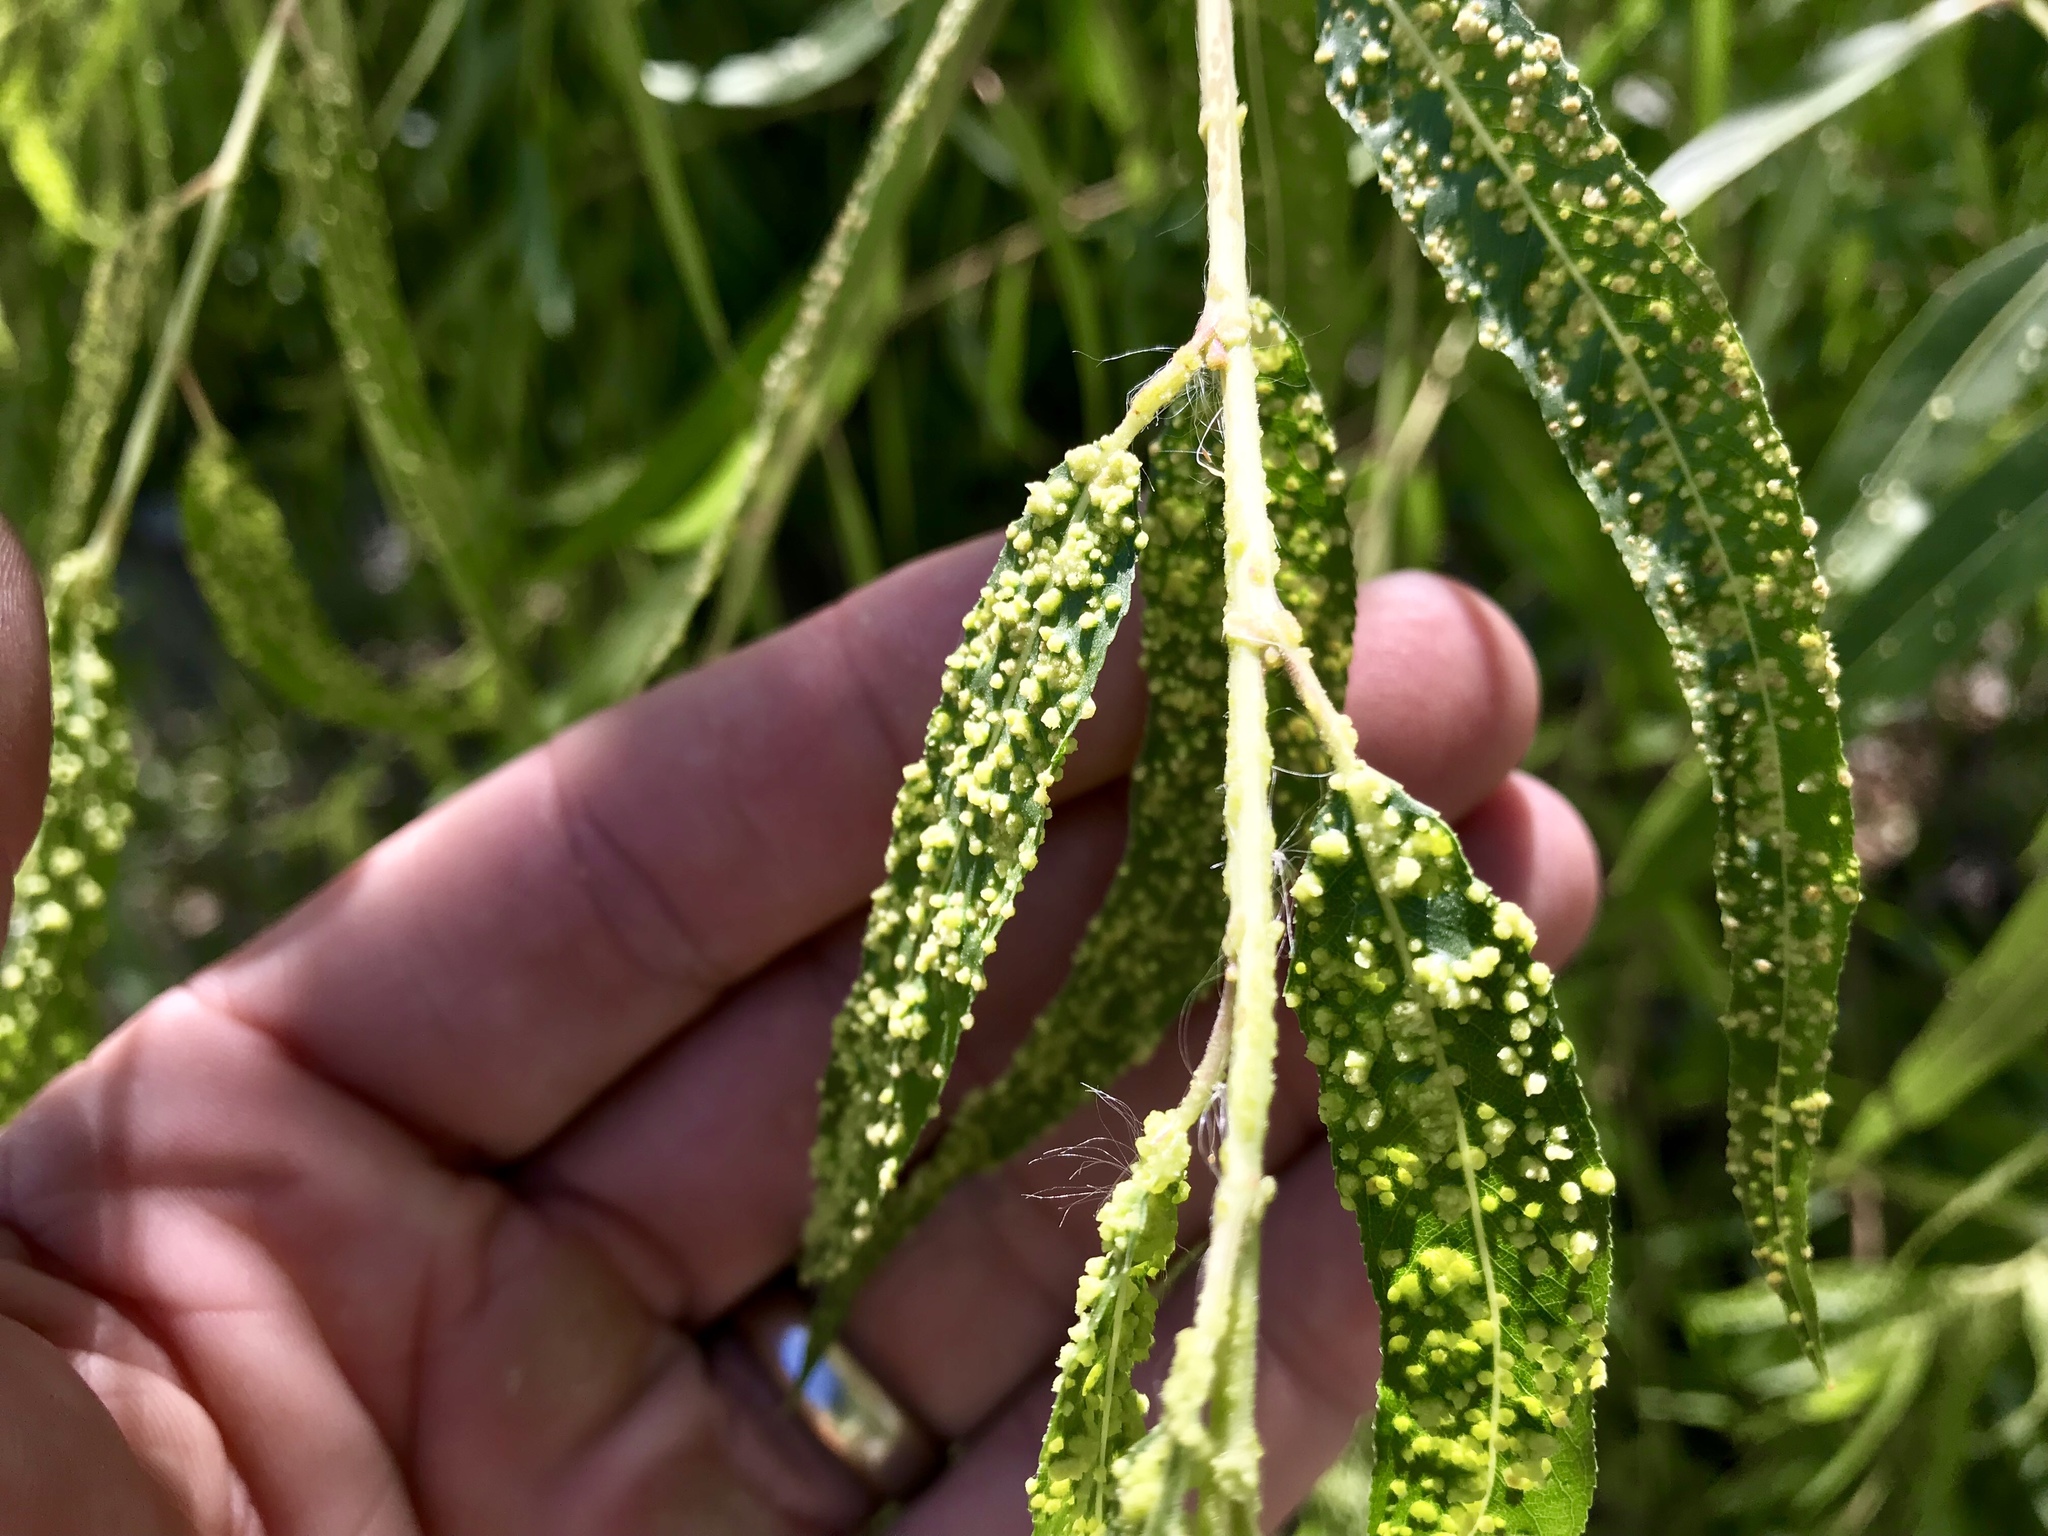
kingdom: Animalia
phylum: Arthropoda
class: Arachnida
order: Trombidiformes
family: Eriophyidae
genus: Aculus
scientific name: Aculus tetanothrix
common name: Willow bead gall mite
